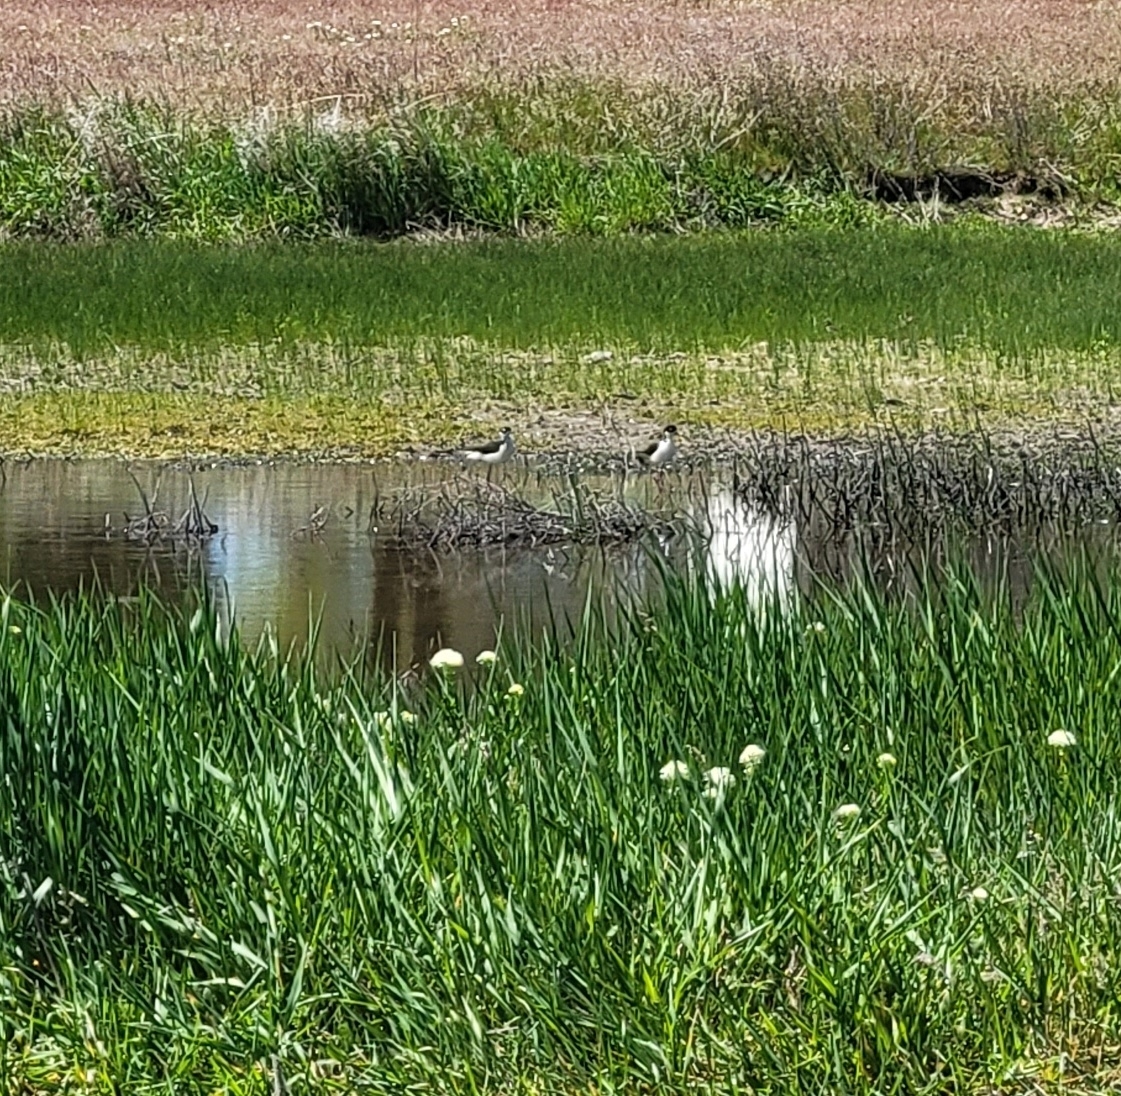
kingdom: Animalia
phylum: Chordata
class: Aves
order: Charadriiformes
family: Recurvirostridae
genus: Himantopus
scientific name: Himantopus mexicanus
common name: Black-necked stilt
